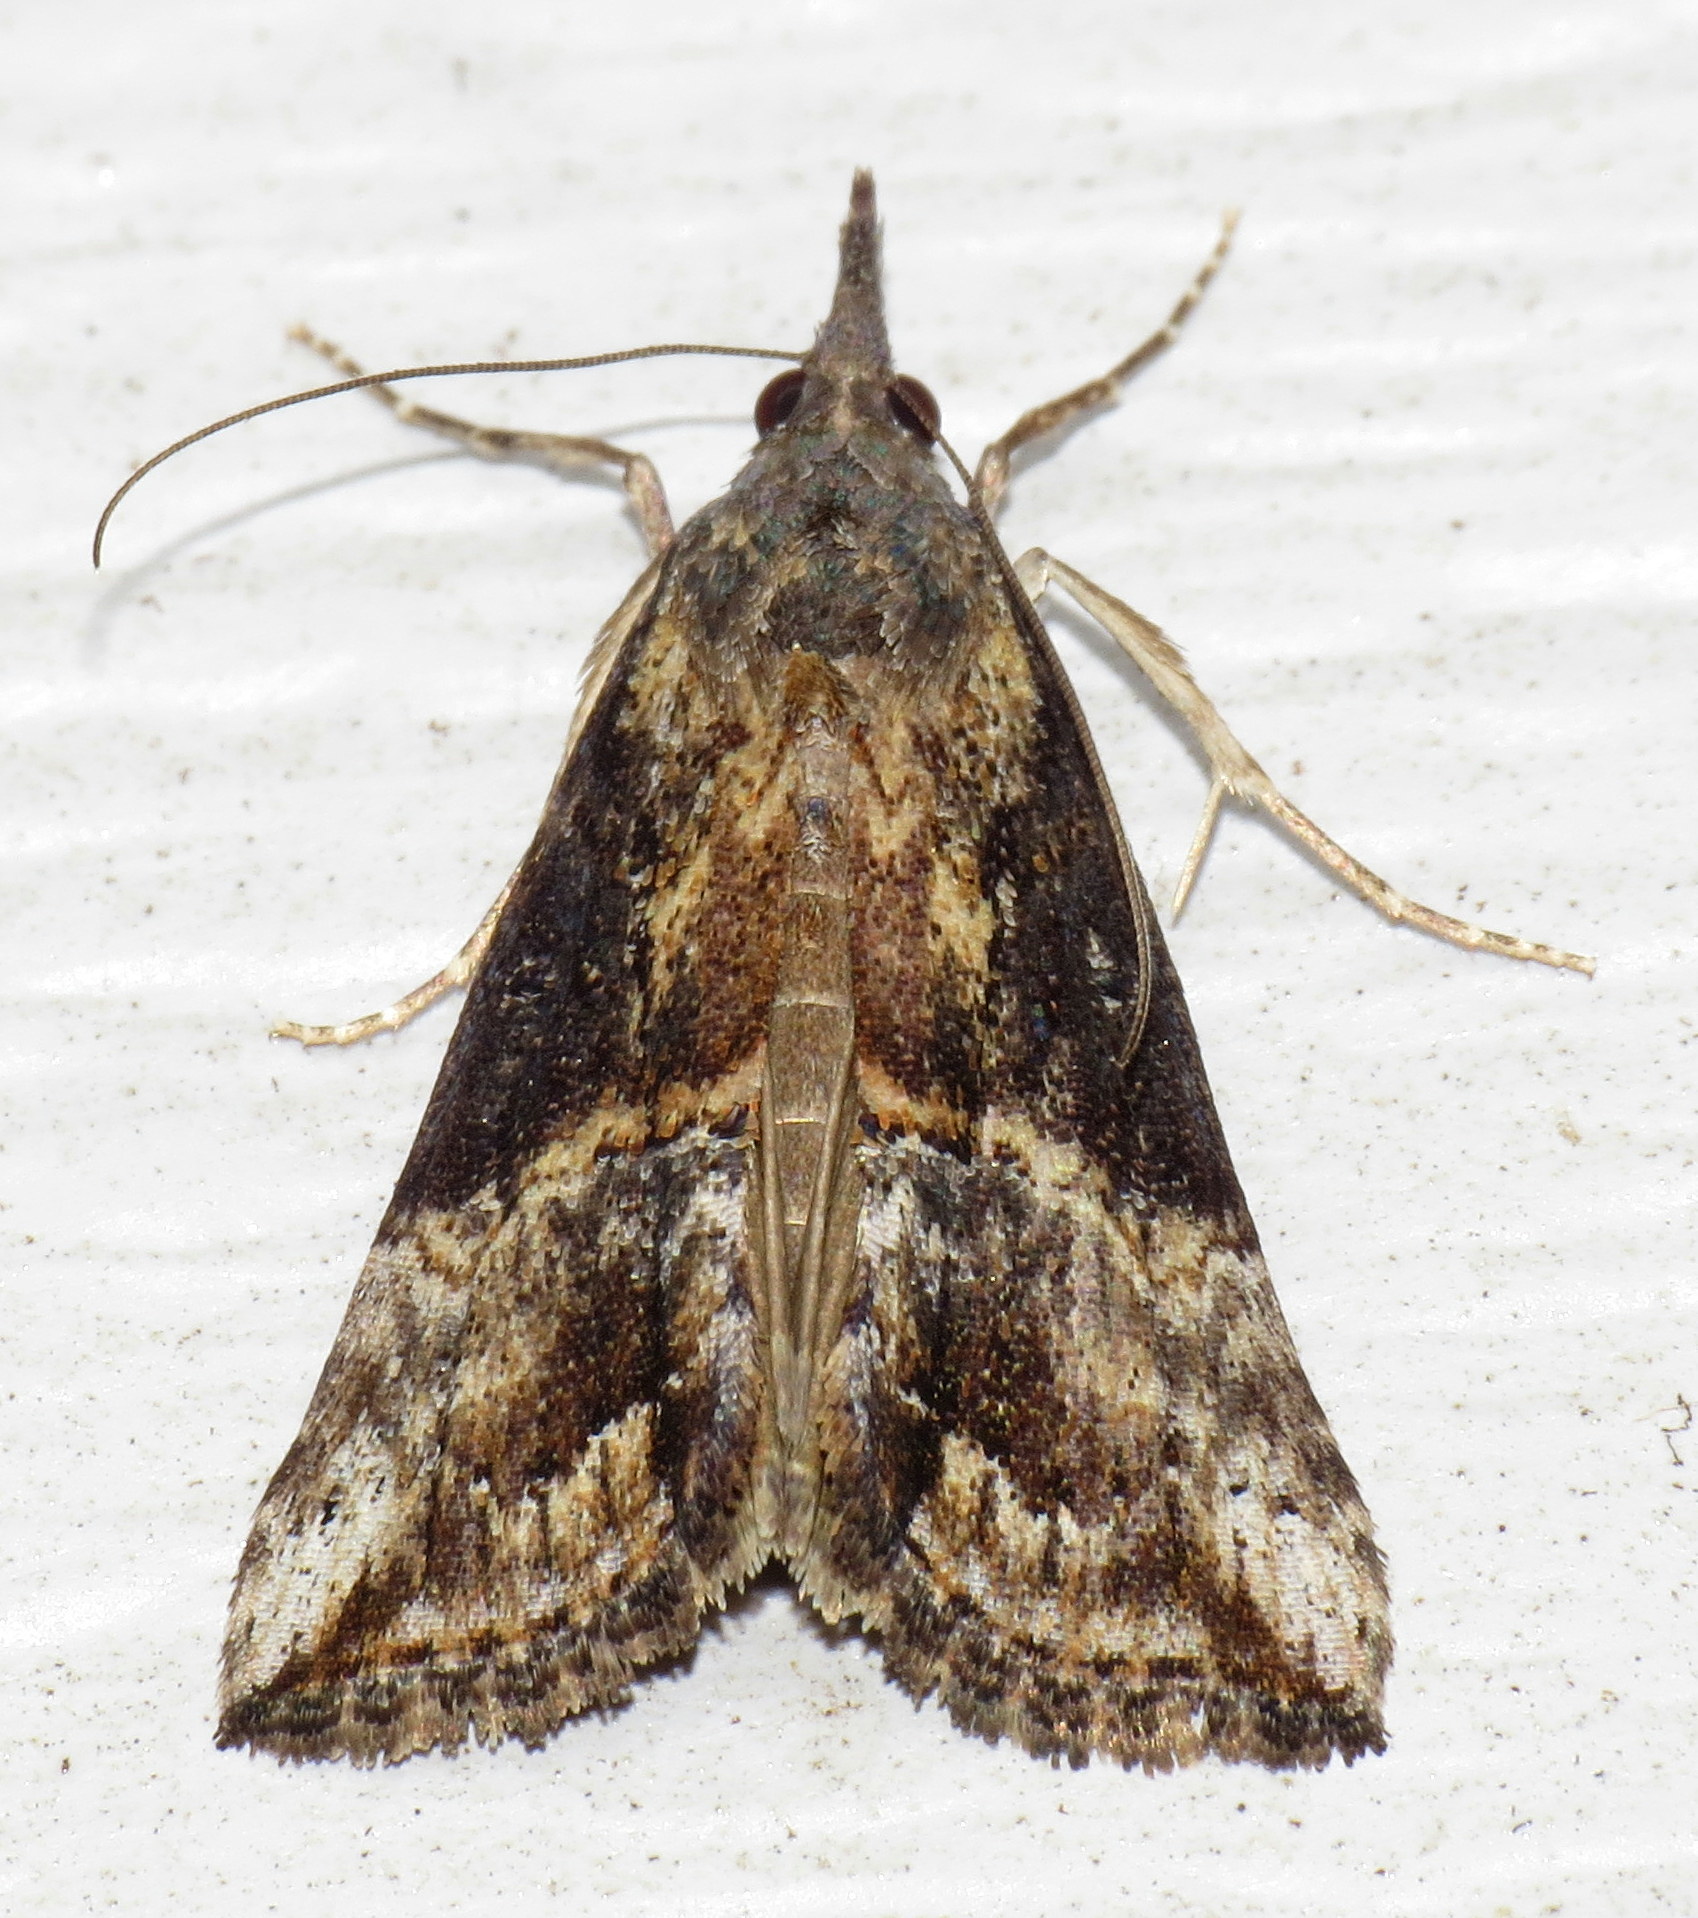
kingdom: Animalia
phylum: Arthropoda
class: Insecta
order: Lepidoptera
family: Erebidae
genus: Hypena
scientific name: Hypena scabra
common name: Green cloverworm
